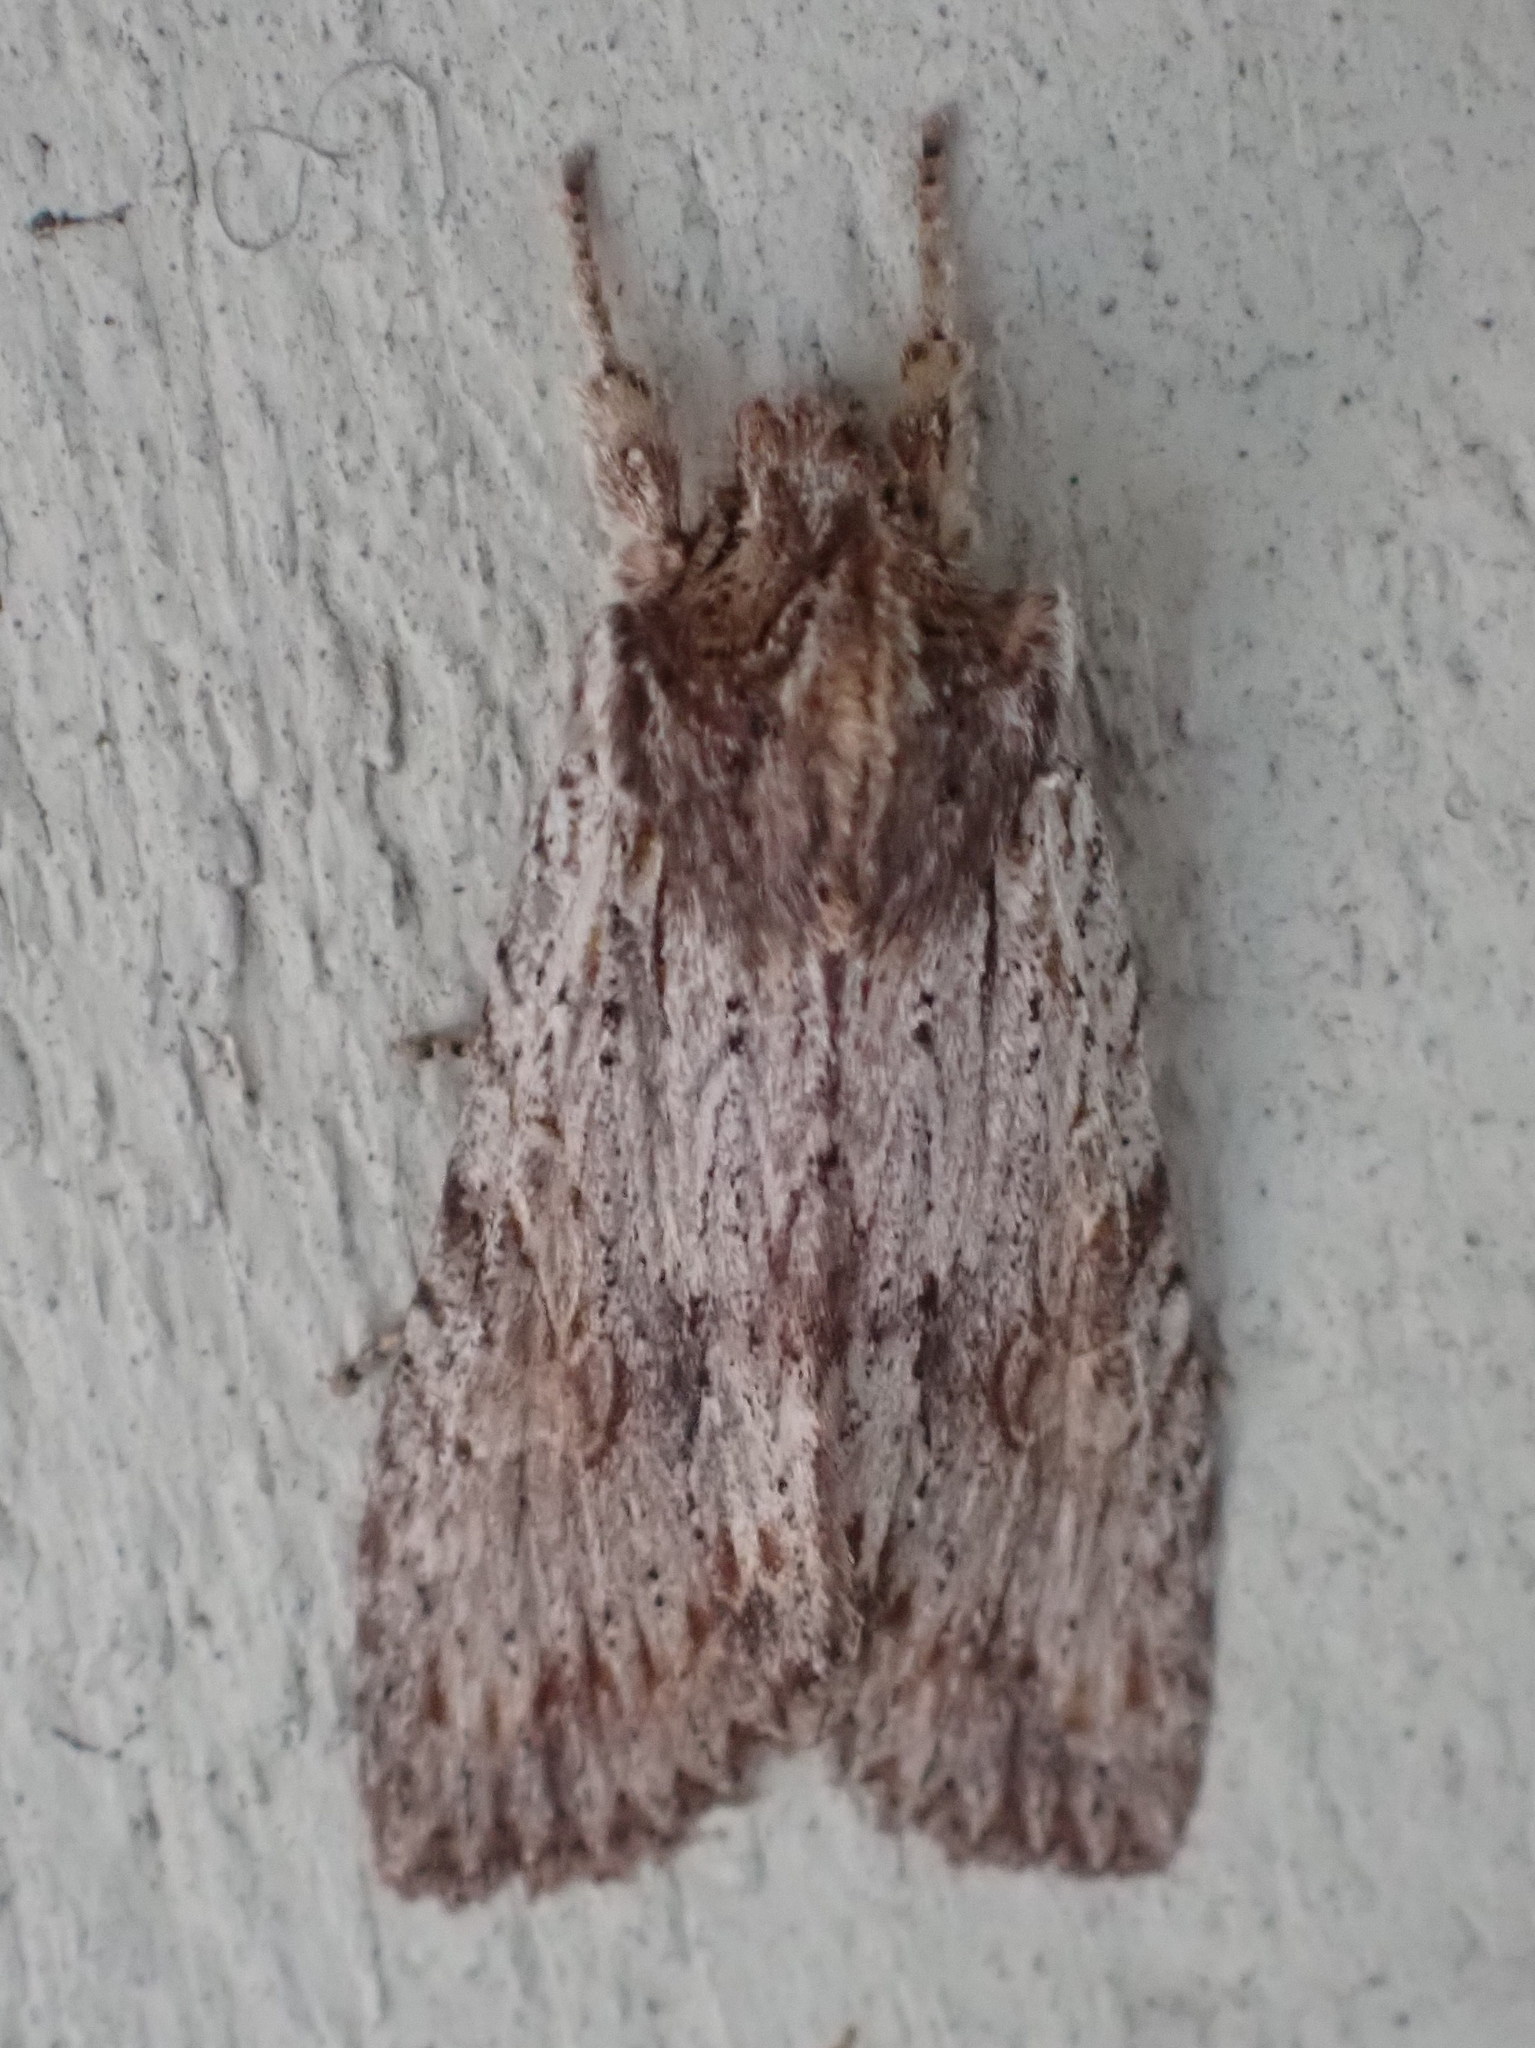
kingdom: Animalia
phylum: Arthropoda
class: Insecta
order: Lepidoptera
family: Noctuidae
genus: Lithophane
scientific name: Lithophane petulca
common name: Wanton pinion
